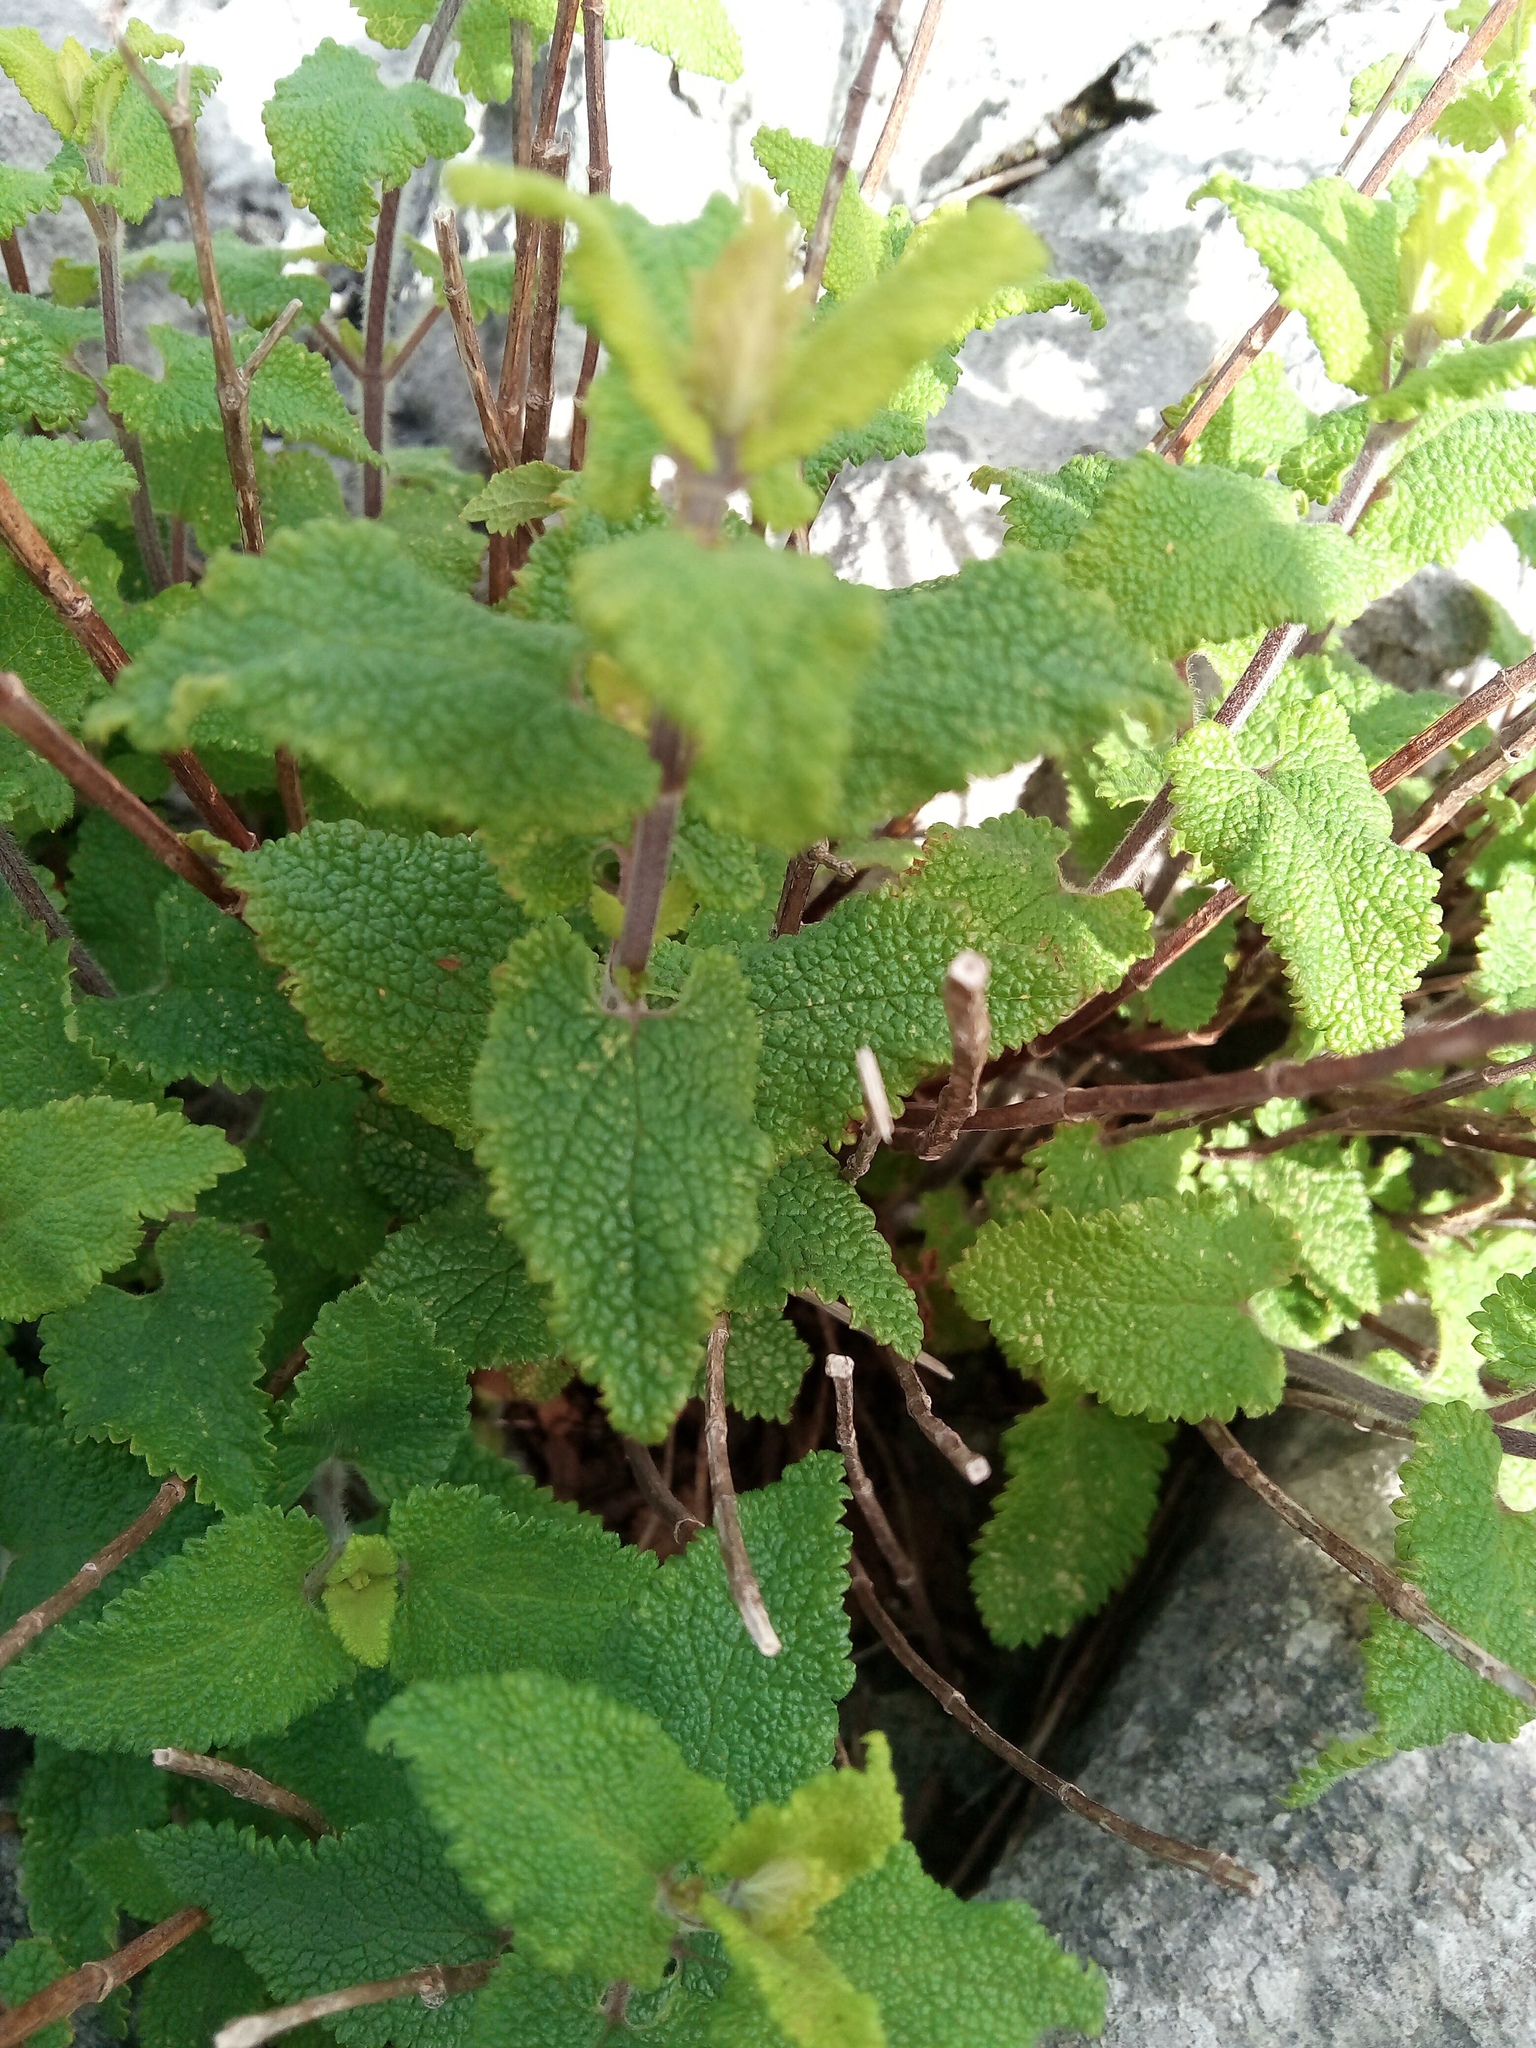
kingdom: Plantae
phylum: Tracheophyta
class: Magnoliopsida
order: Lamiales
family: Lamiaceae
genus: Teucrium
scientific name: Teucrium scorodonia
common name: Woodland germander
